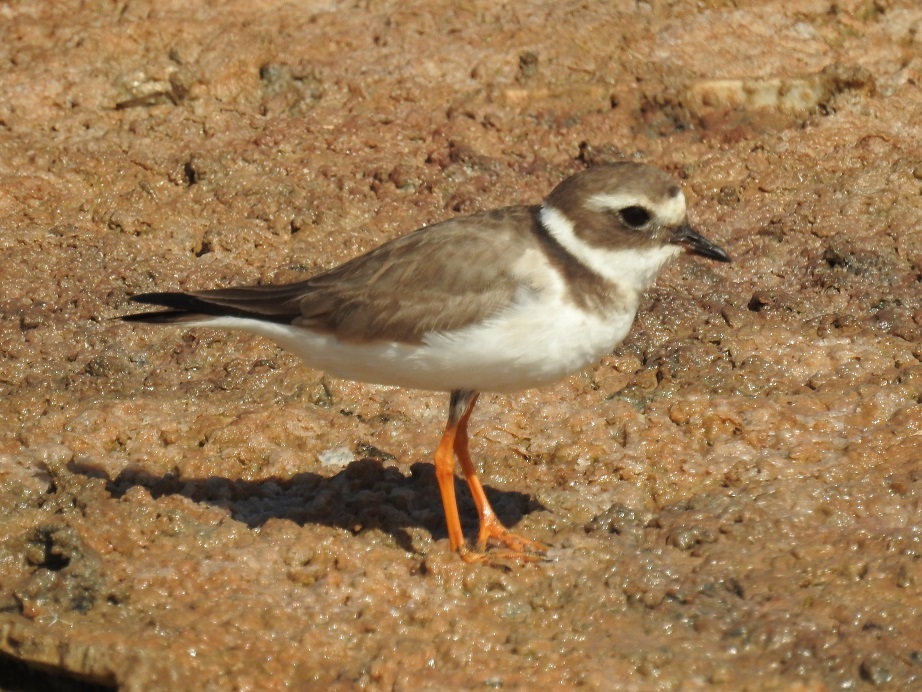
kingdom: Animalia
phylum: Chordata
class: Aves
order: Charadriiformes
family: Charadriidae
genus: Charadrius
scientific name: Charadrius hiaticula
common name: Common ringed plover
